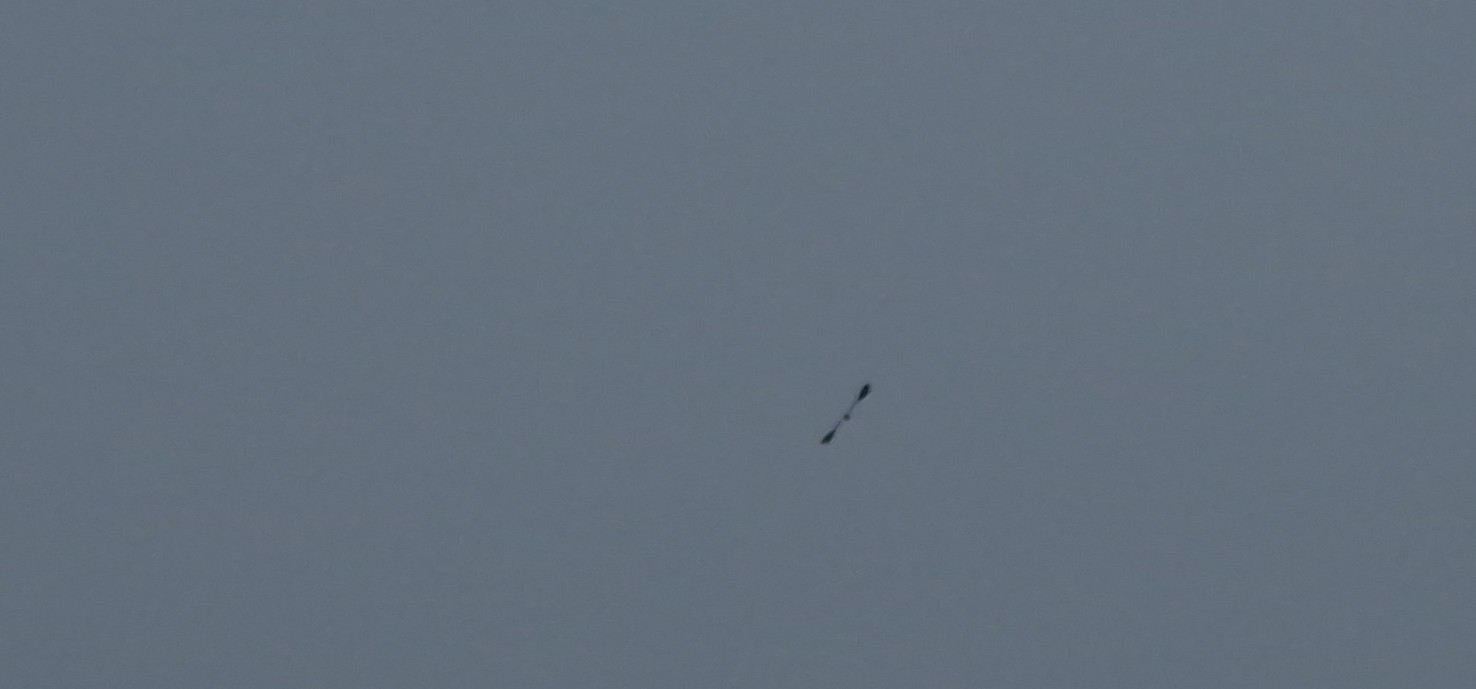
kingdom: Animalia
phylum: Chordata
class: Aves
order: Charadriiformes
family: Charadriidae
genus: Vanellus
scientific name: Vanellus vanellus
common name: Northern lapwing
